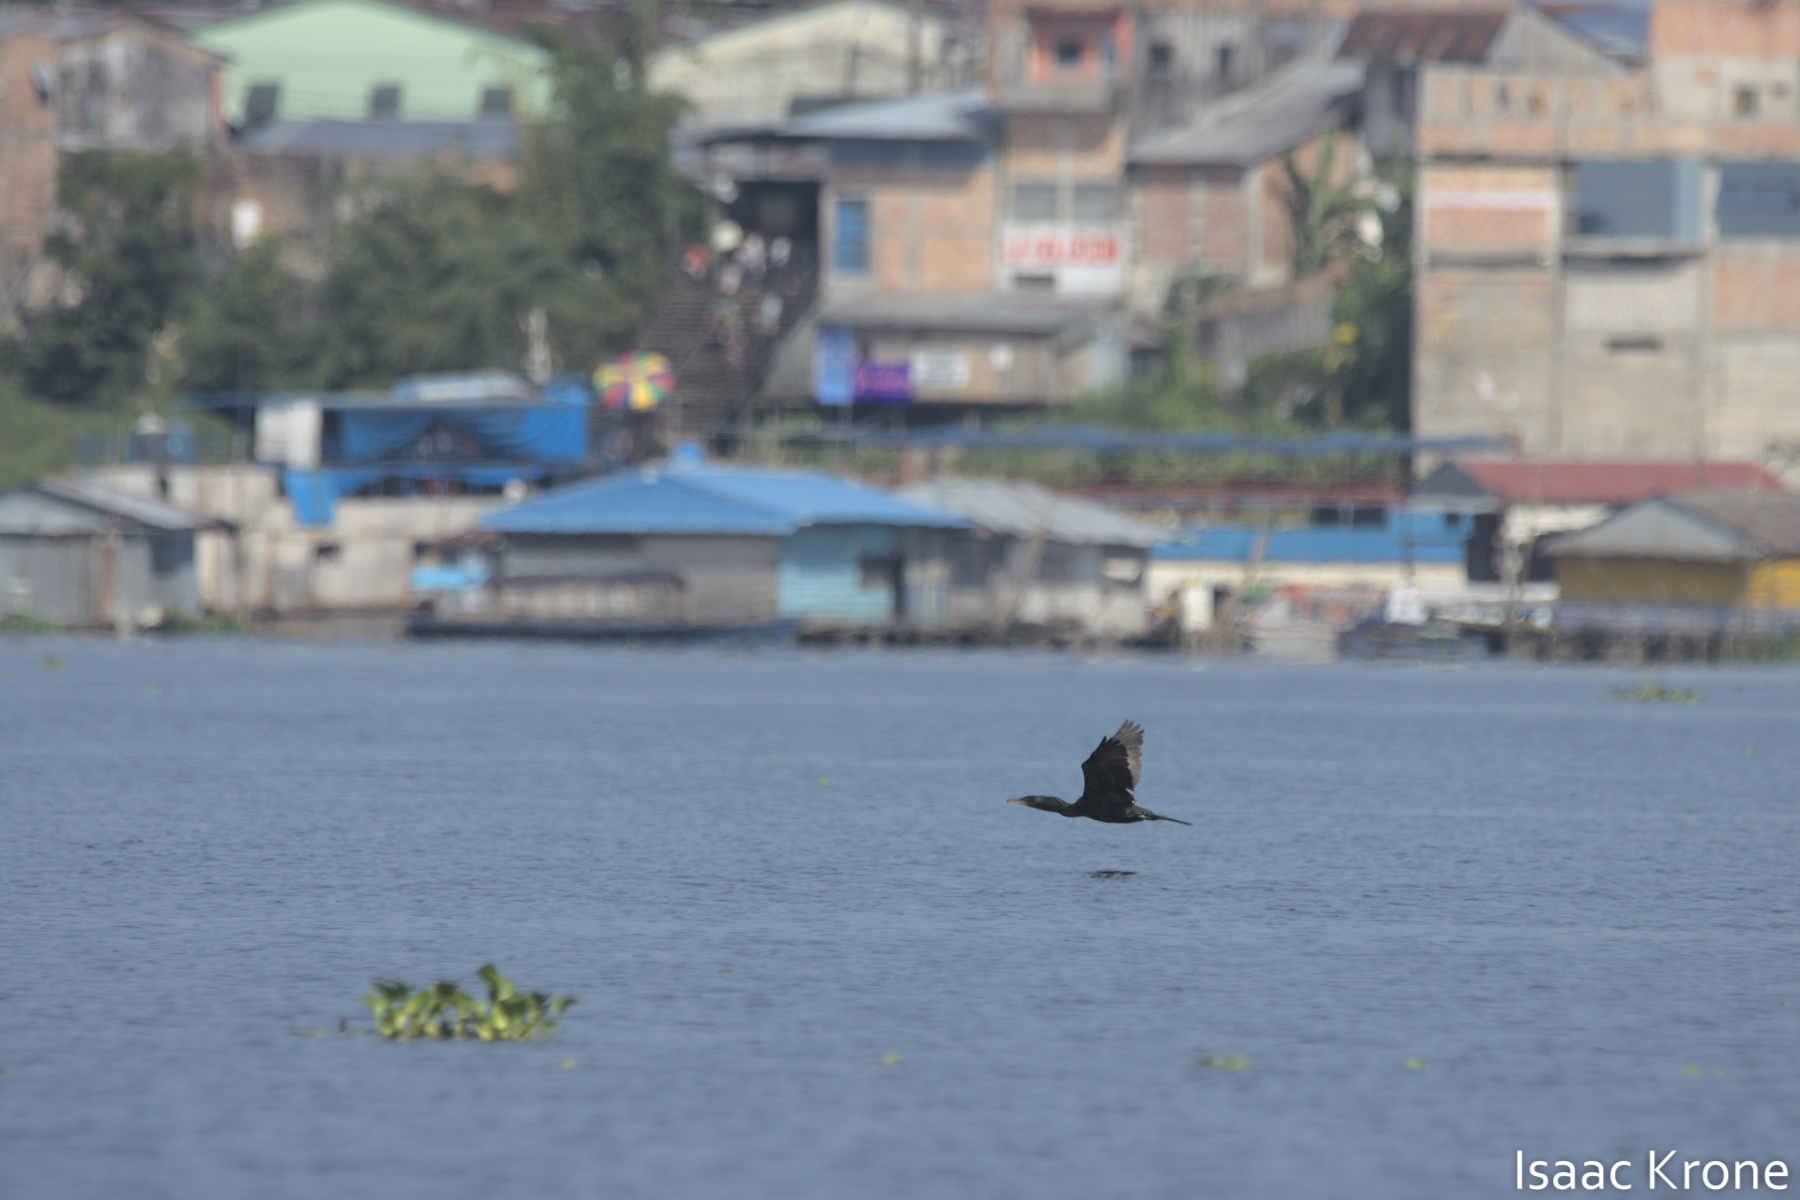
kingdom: Animalia
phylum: Chordata
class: Aves
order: Suliformes
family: Phalacrocoracidae
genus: Phalacrocorax
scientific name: Phalacrocorax brasilianus
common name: Neotropic cormorant
